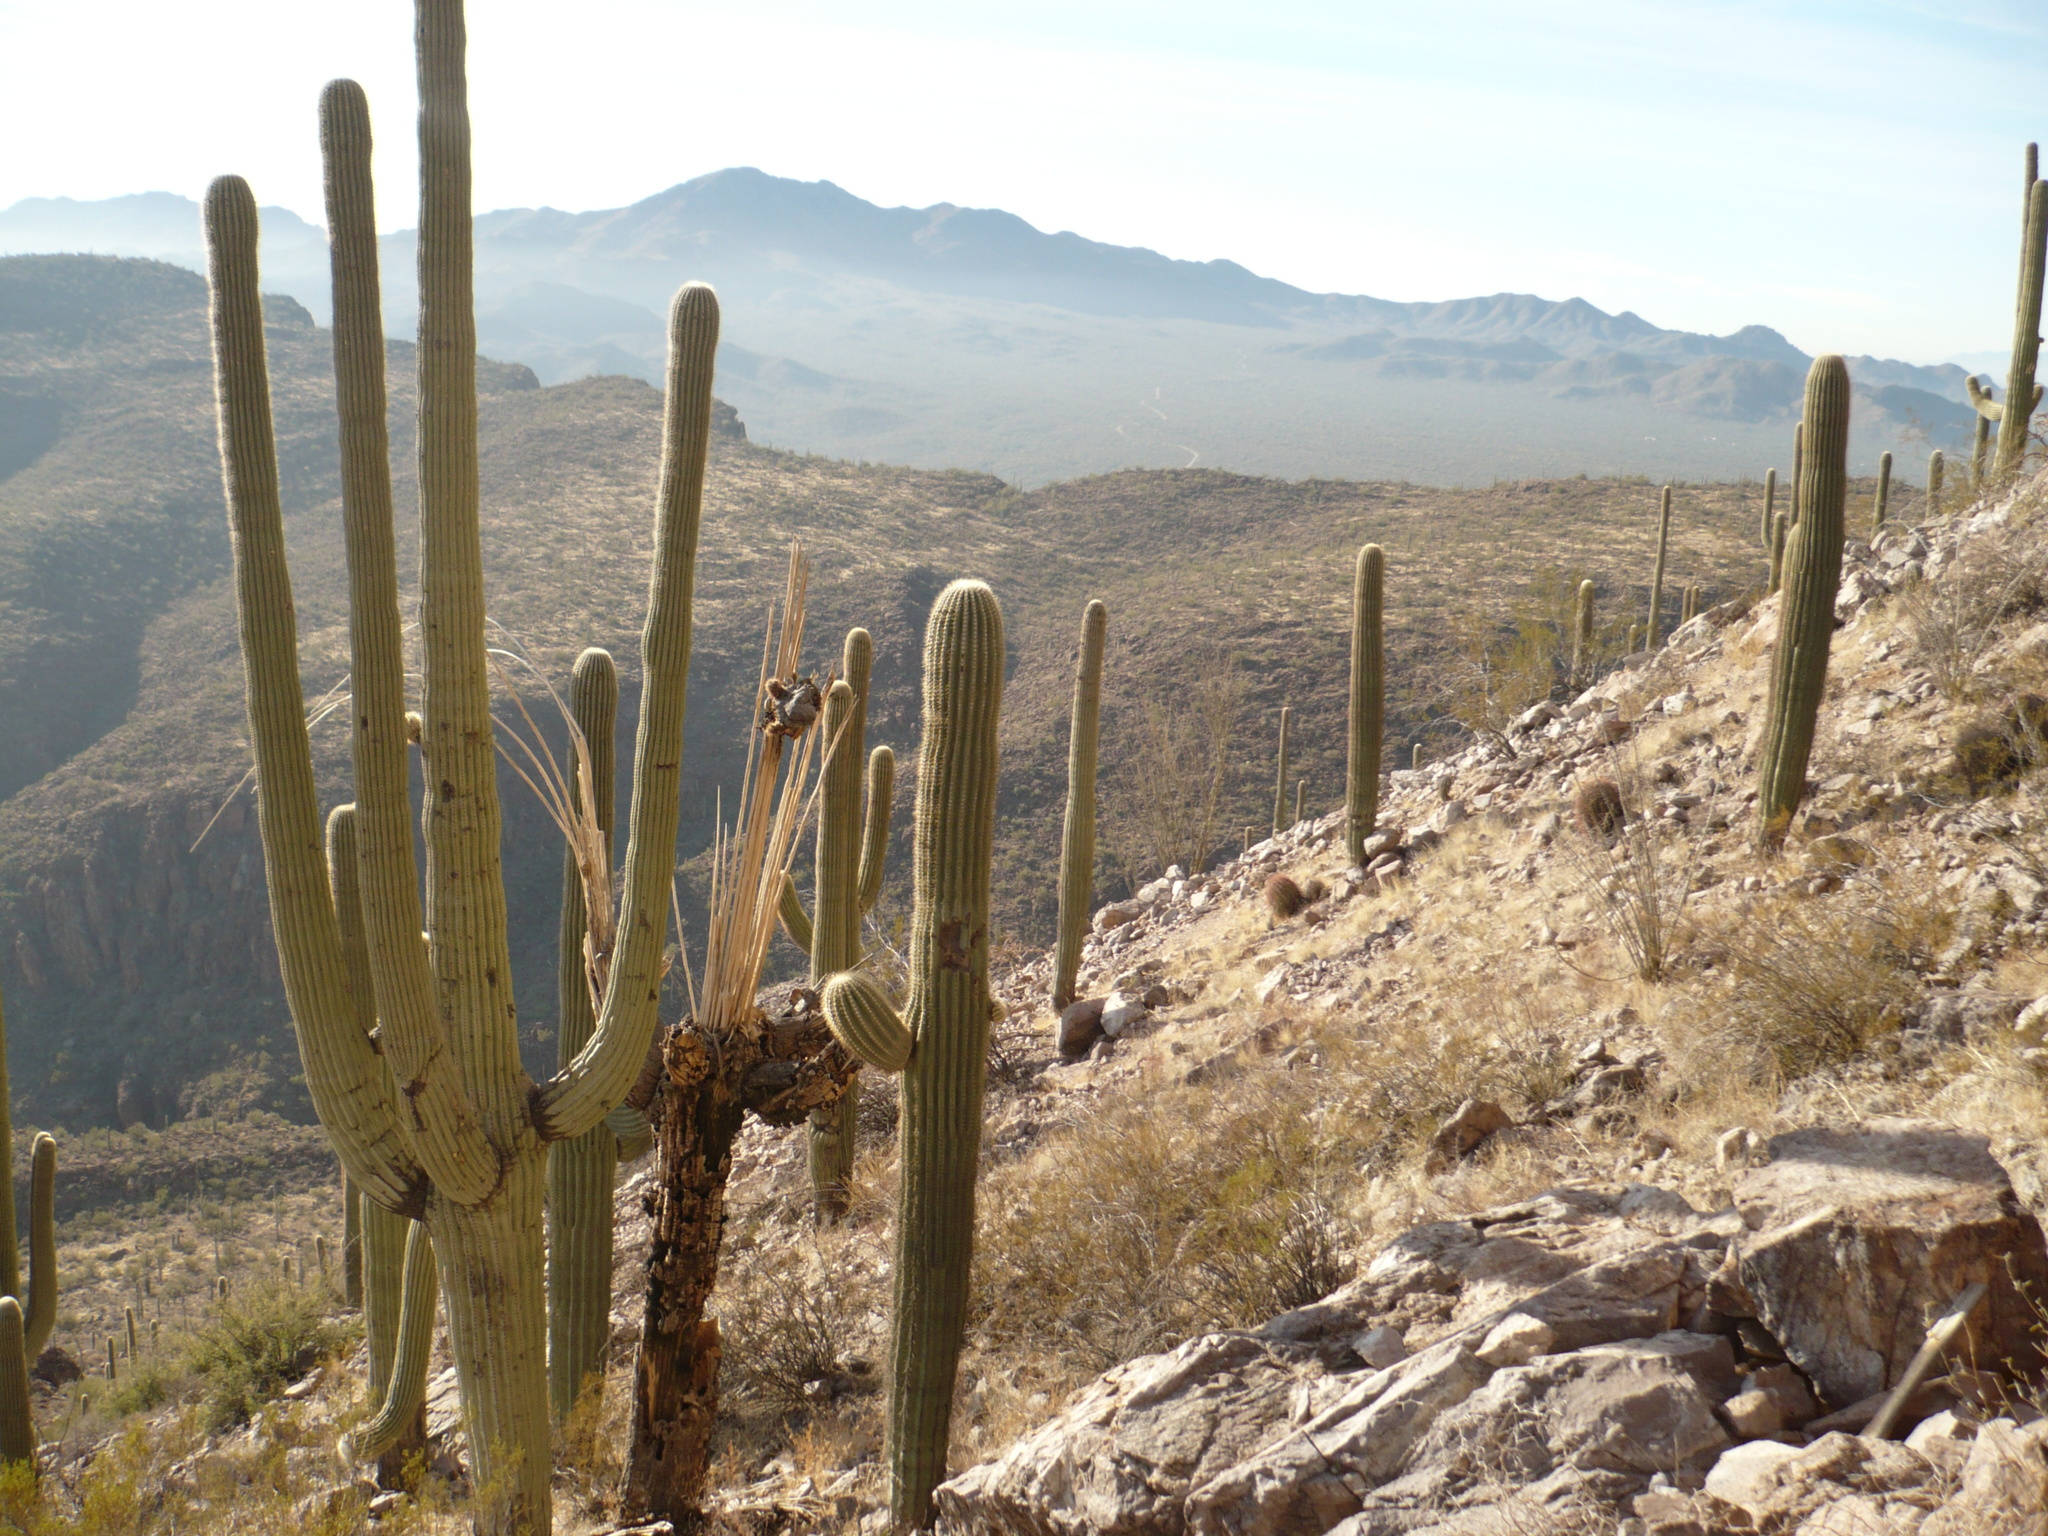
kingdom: Plantae
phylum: Tracheophyta
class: Magnoliopsida
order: Caryophyllales
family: Cactaceae
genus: Carnegiea
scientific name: Carnegiea gigantea
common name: Saguaro
